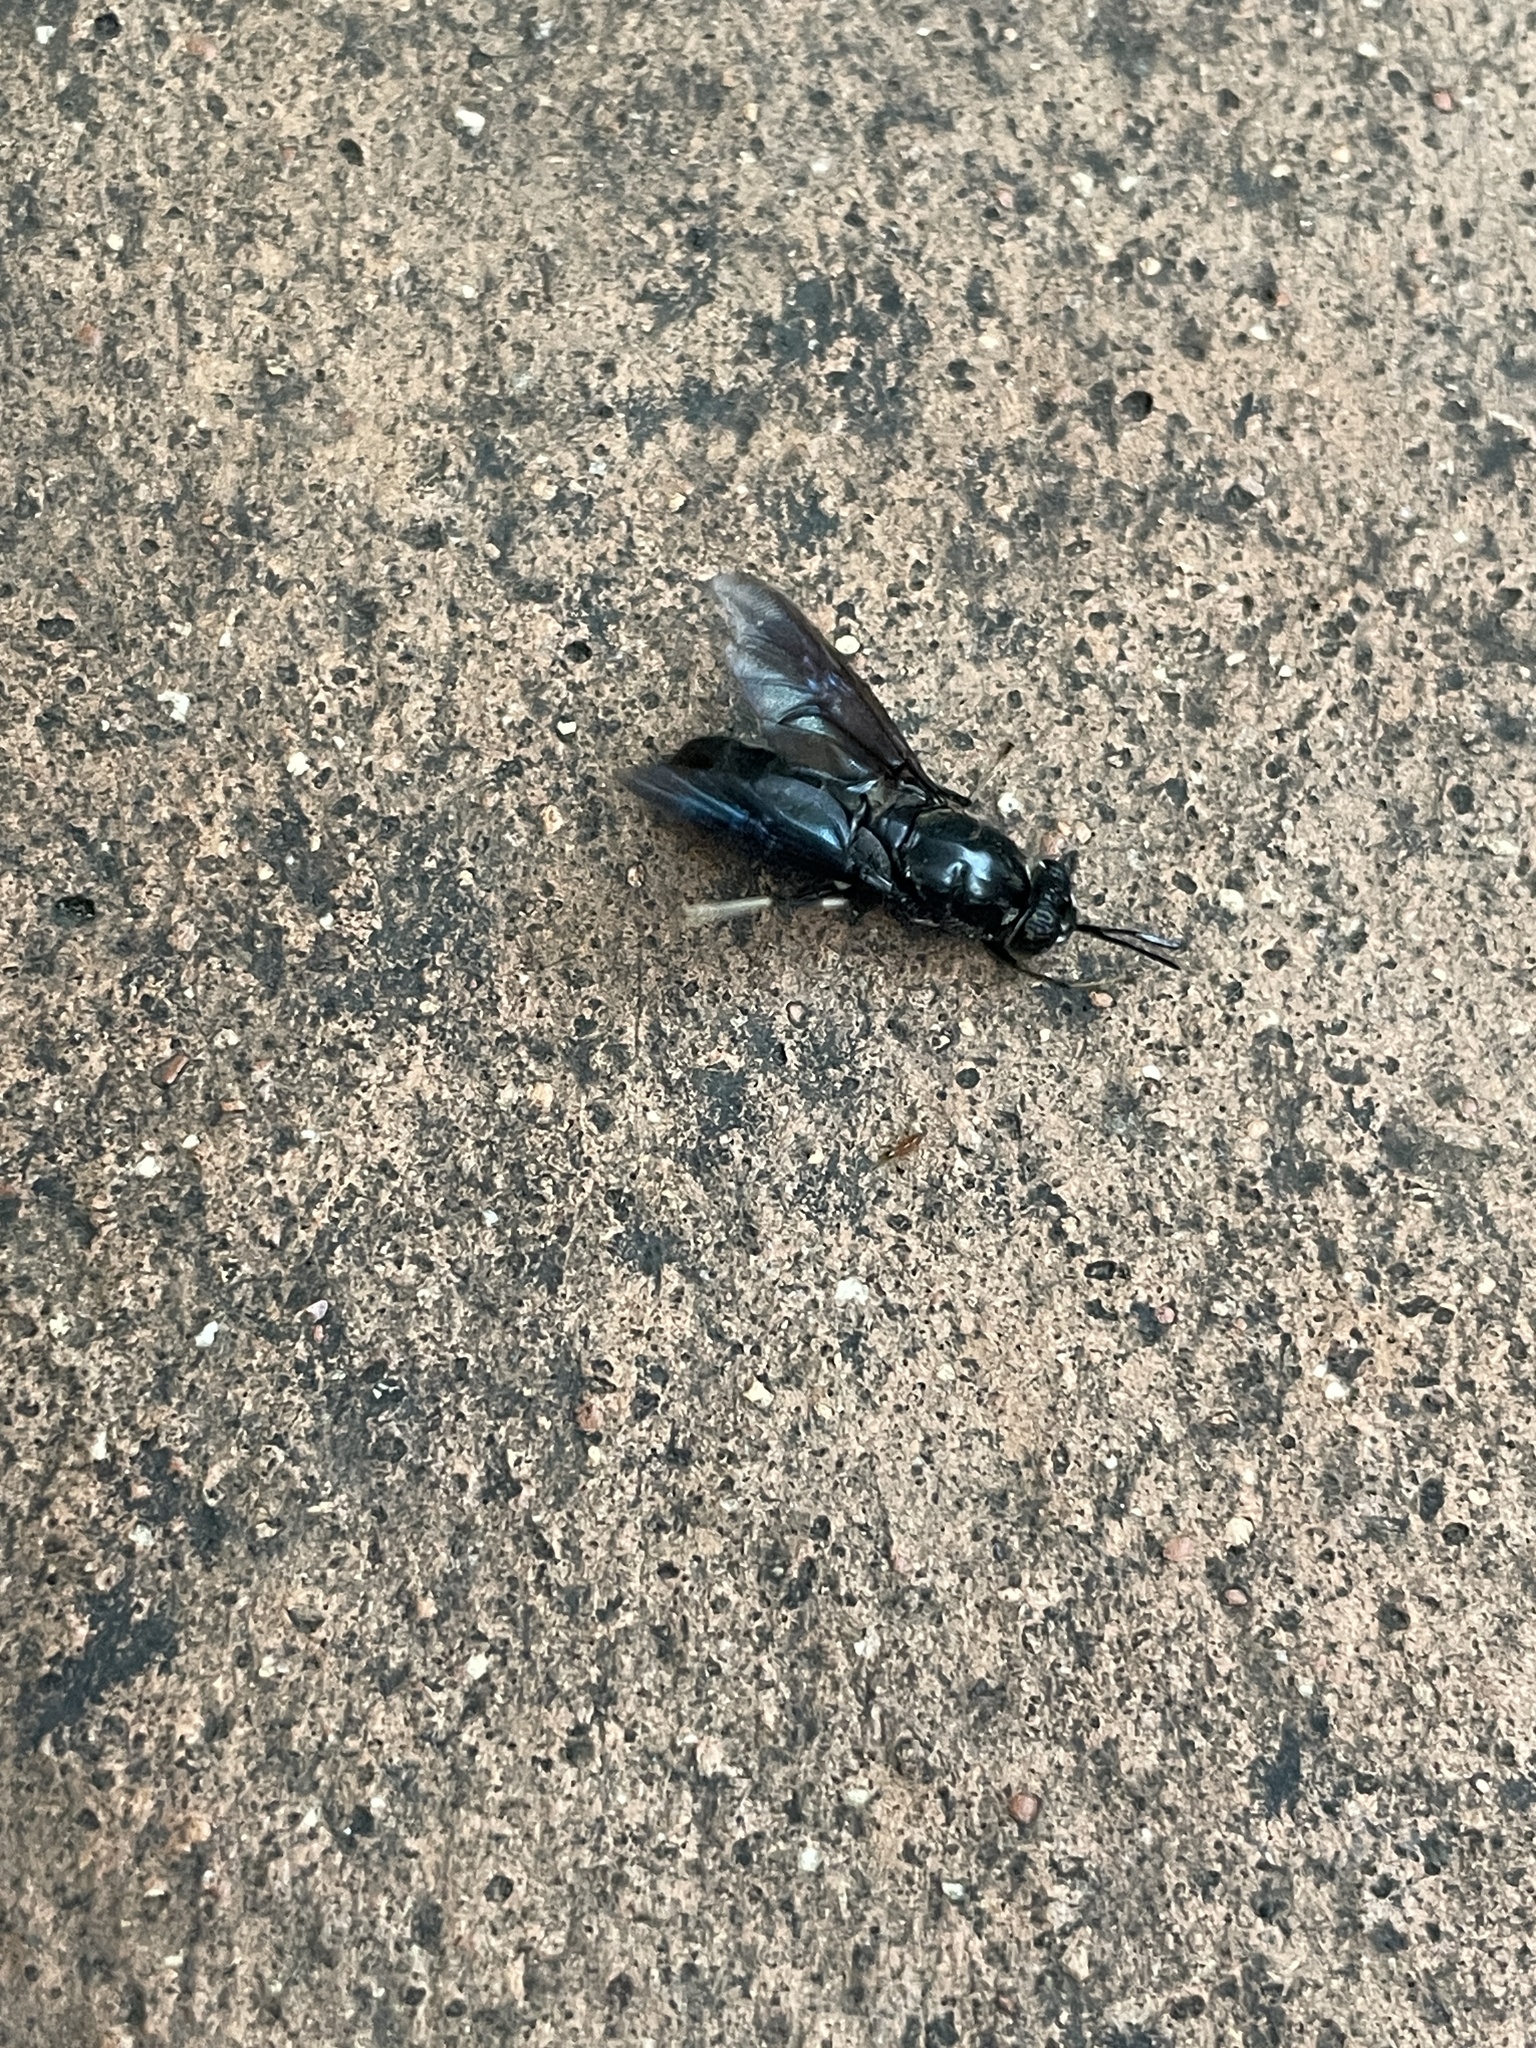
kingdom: Animalia
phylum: Arthropoda
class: Insecta
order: Diptera
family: Stratiomyidae
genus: Hermetia
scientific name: Hermetia illucens
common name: Black soldier fly
